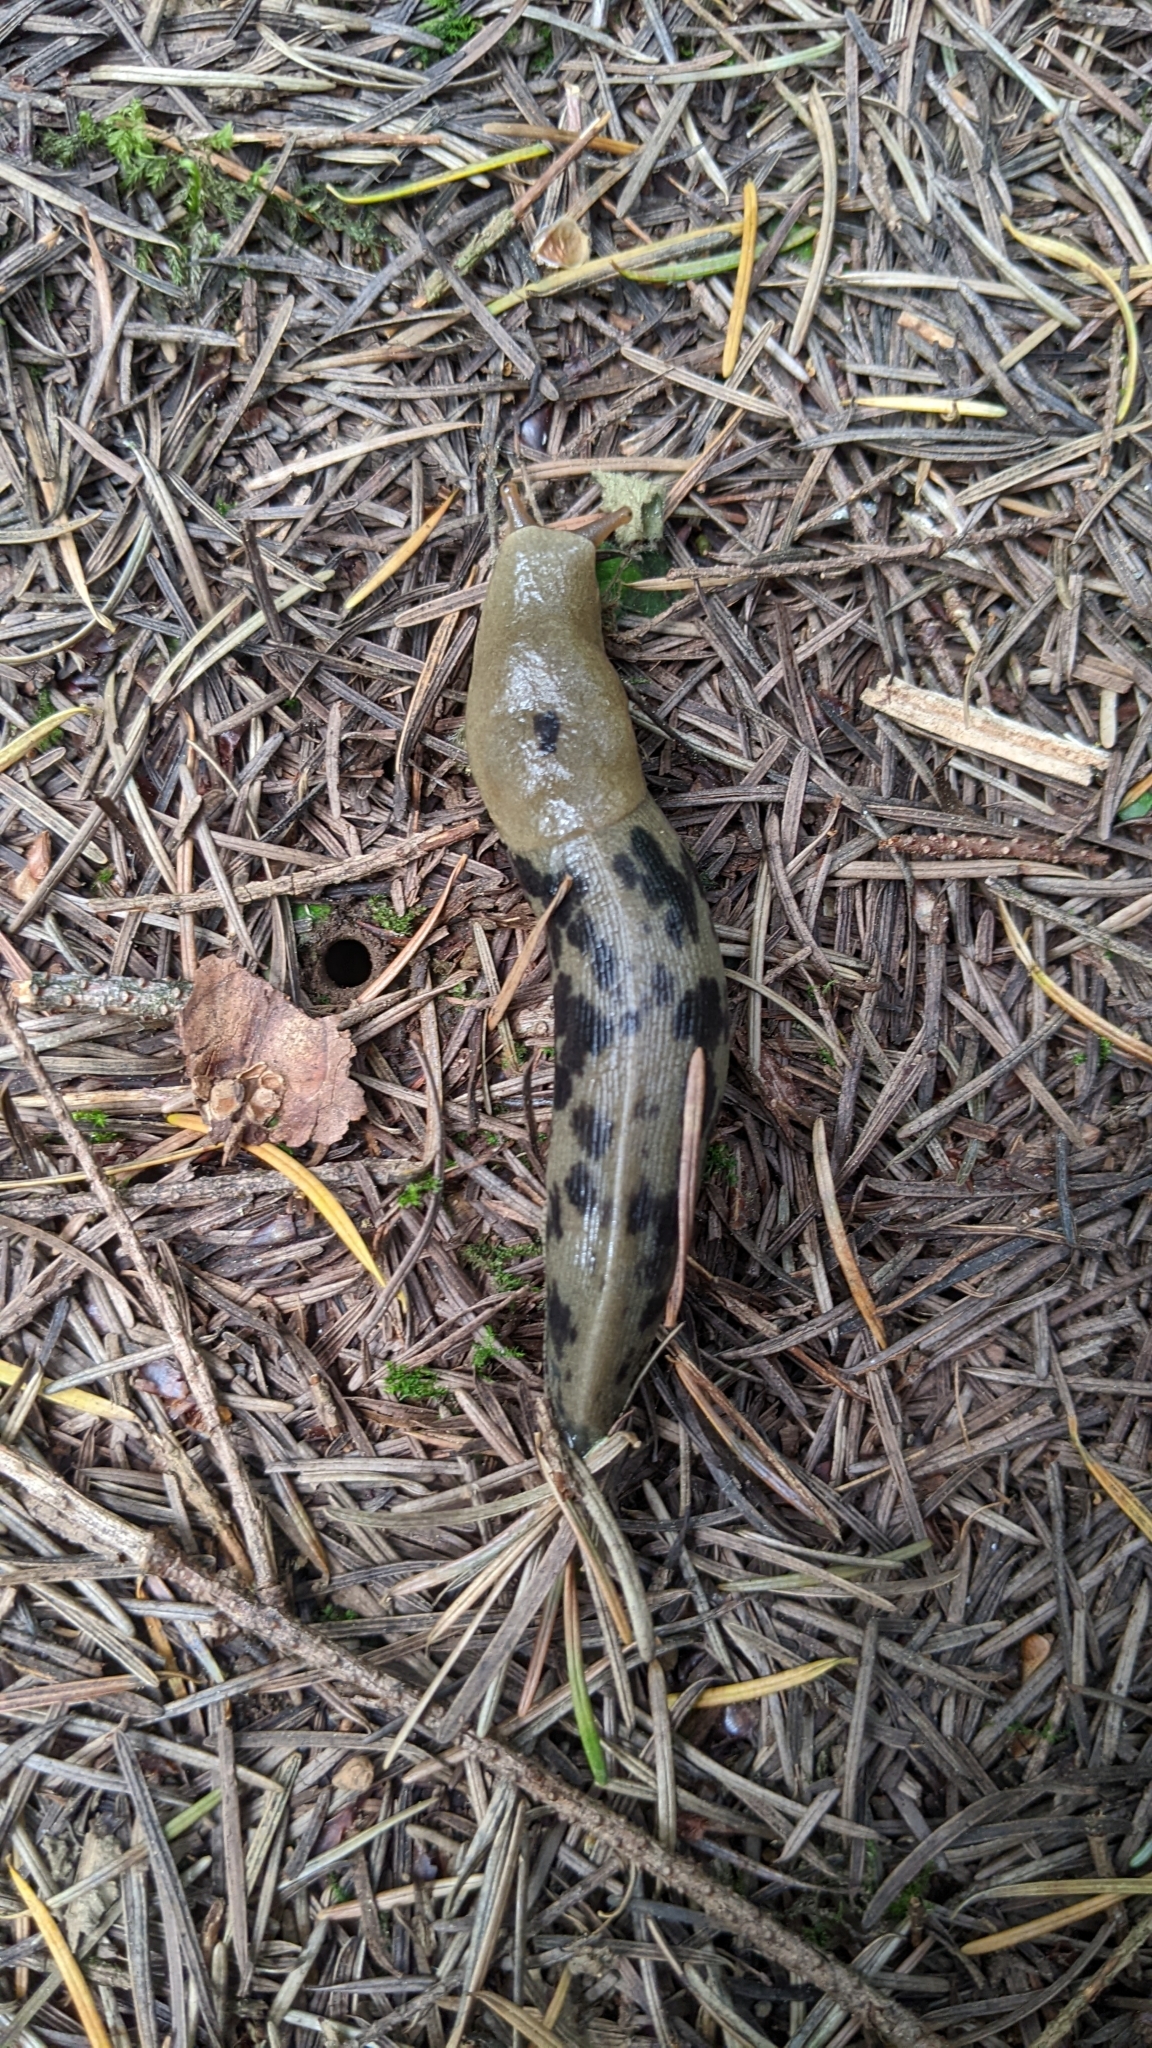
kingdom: Animalia
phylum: Mollusca
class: Gastropoda
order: Stylommatophora
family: Ariolimacidae
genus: Ariolimax
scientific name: Ariolimax columbianus
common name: Pacific banana slug
